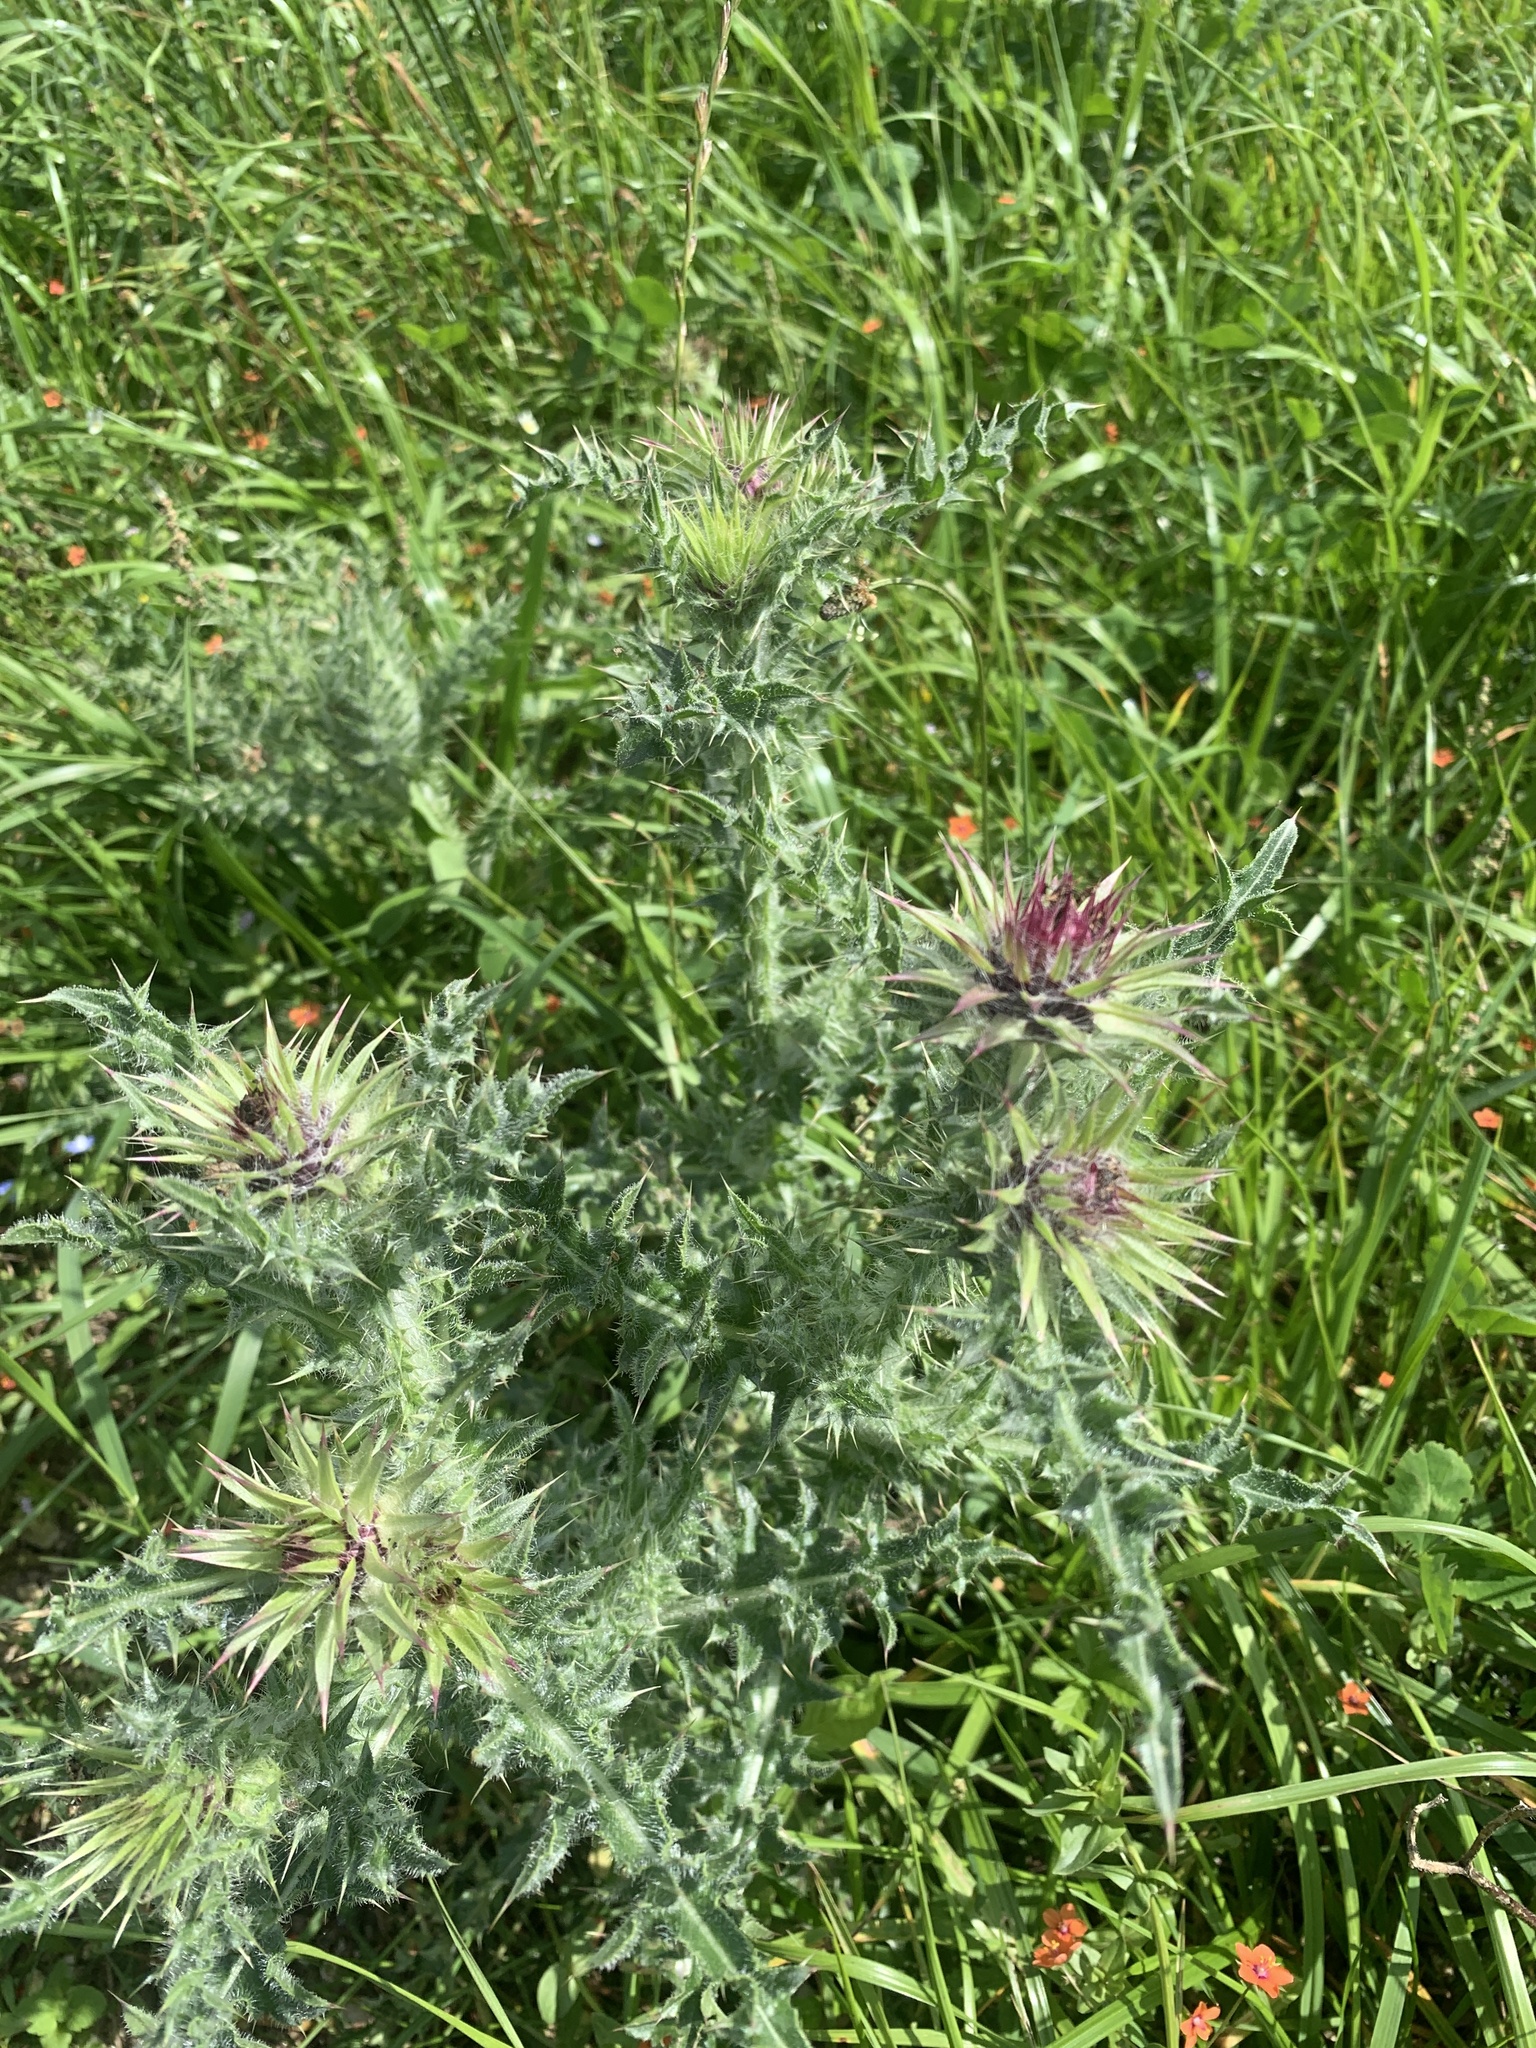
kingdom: Plantae
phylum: Tracheophyta
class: Magnoliopsida
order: Asterales
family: Asteraceae
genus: Carduus
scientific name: Carduus nutans
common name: Musk thistle
